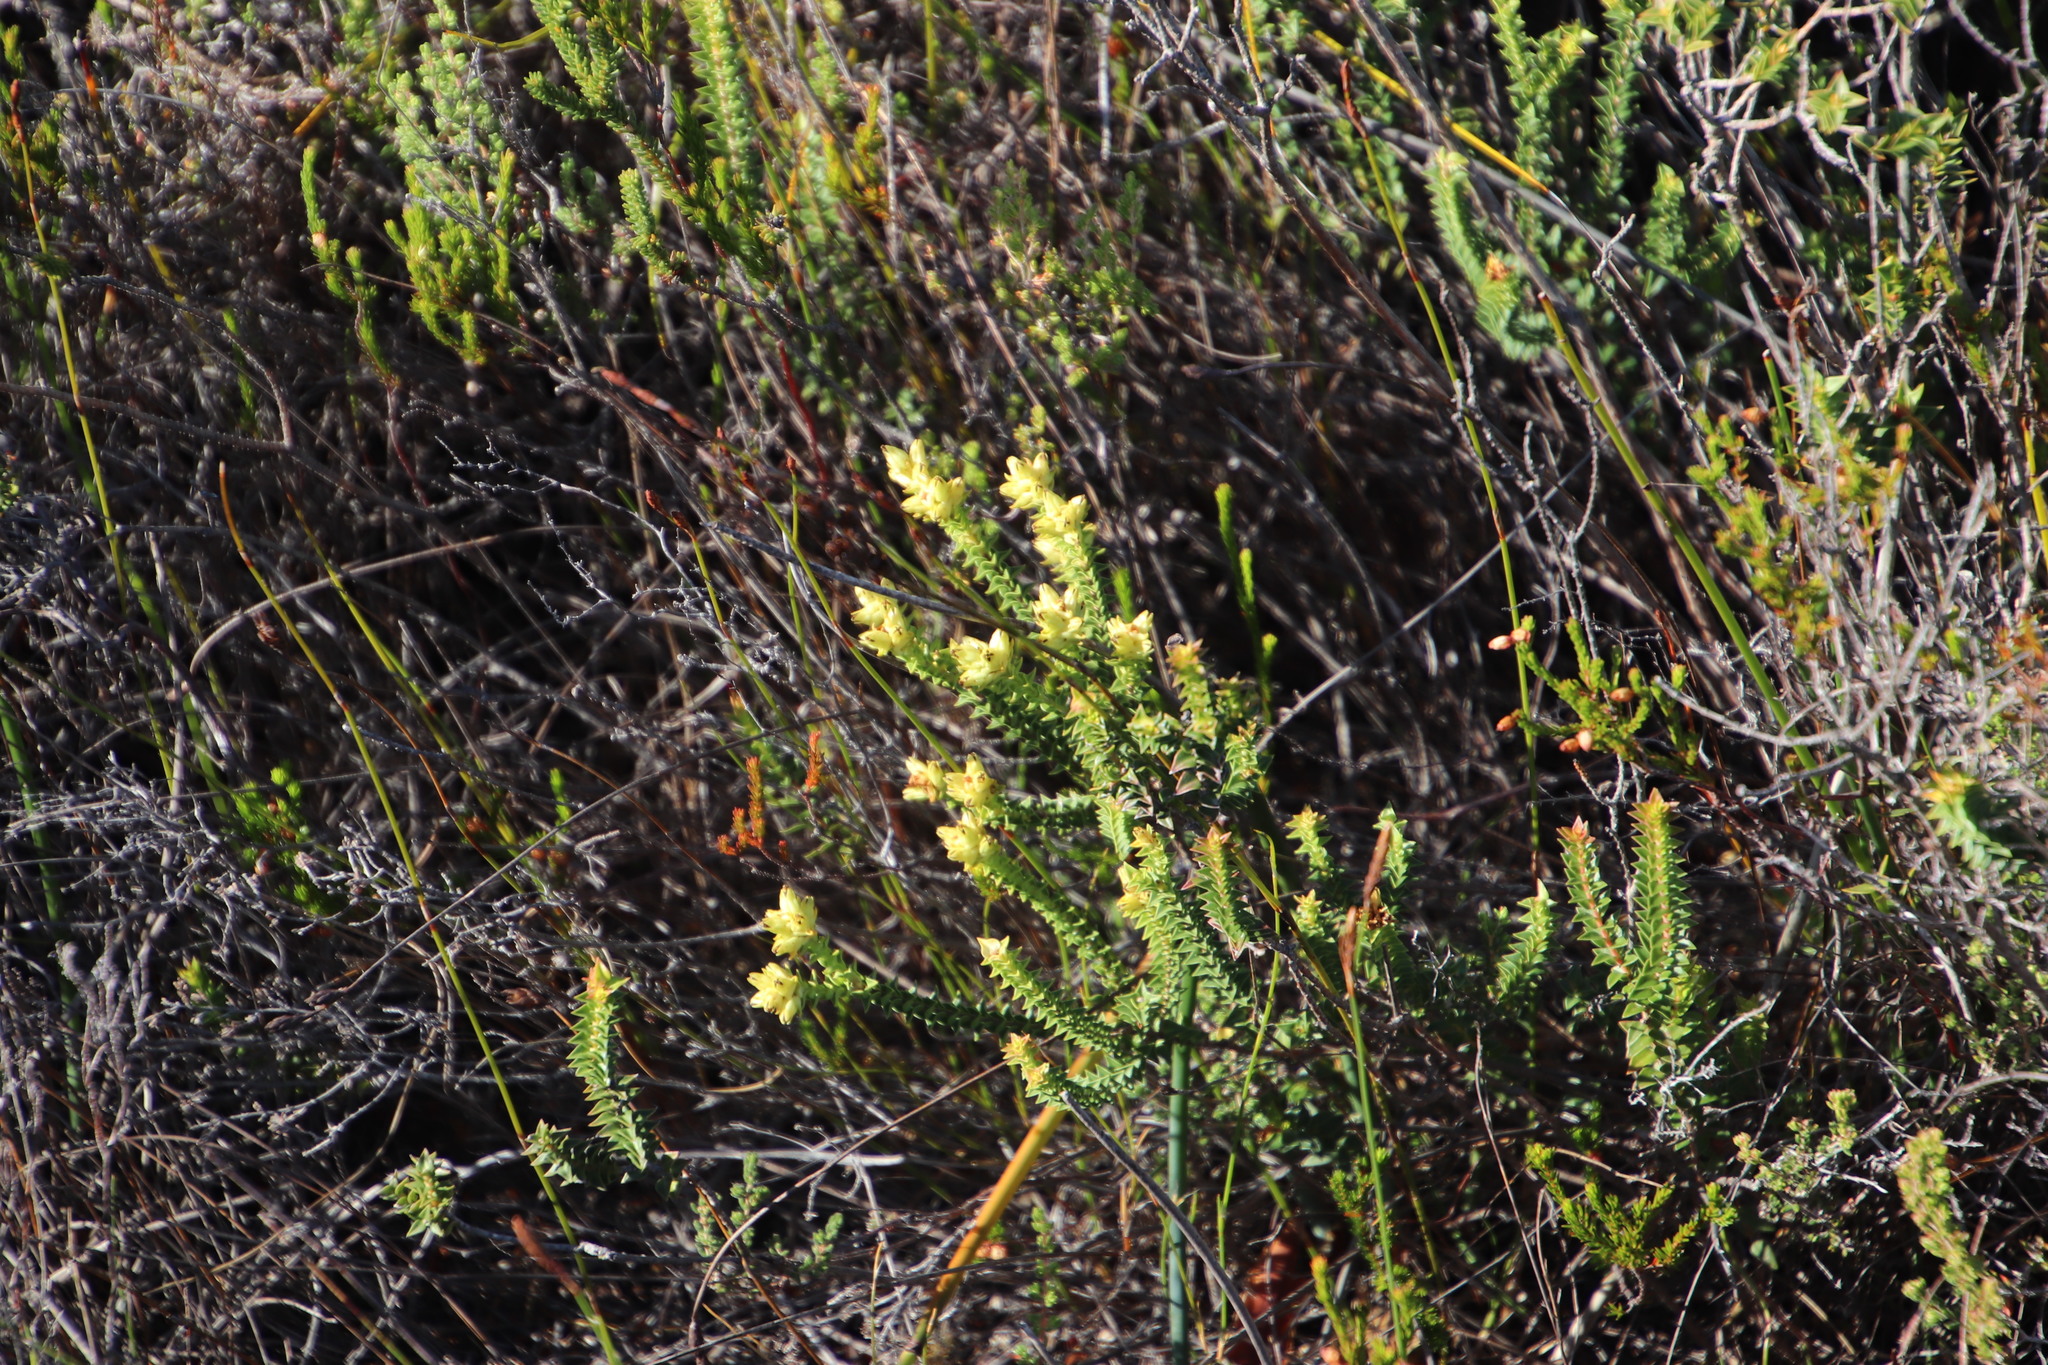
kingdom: Plantae
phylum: Tracheophyta
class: Magnoliopsida
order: Myrtales
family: Penaeaceae
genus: Penaea
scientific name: Penaea mucronata
